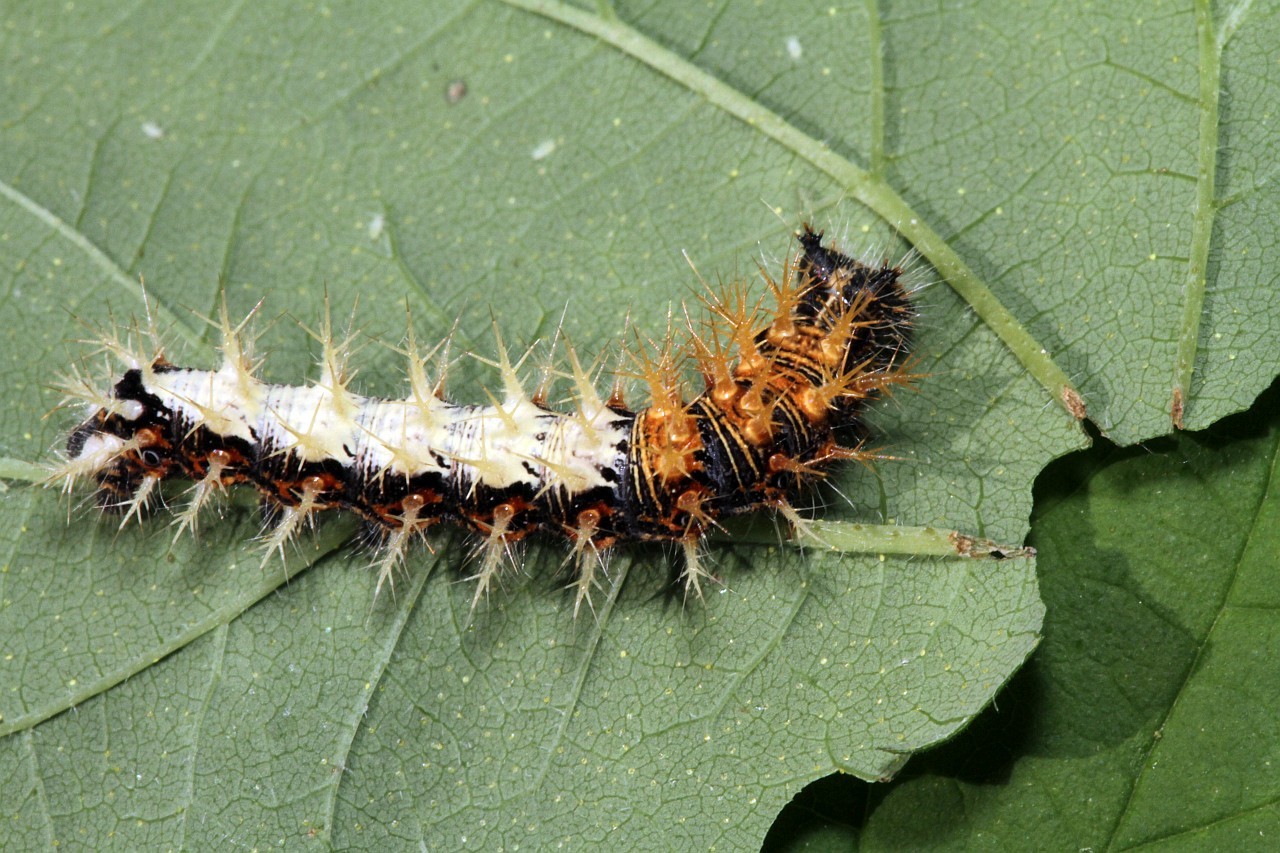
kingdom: Animalia
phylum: Arthropoda
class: Insecta
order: Lepidoptera
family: Nymphalidae
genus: Polygonia
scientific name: Polygonia c-album
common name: Comma
